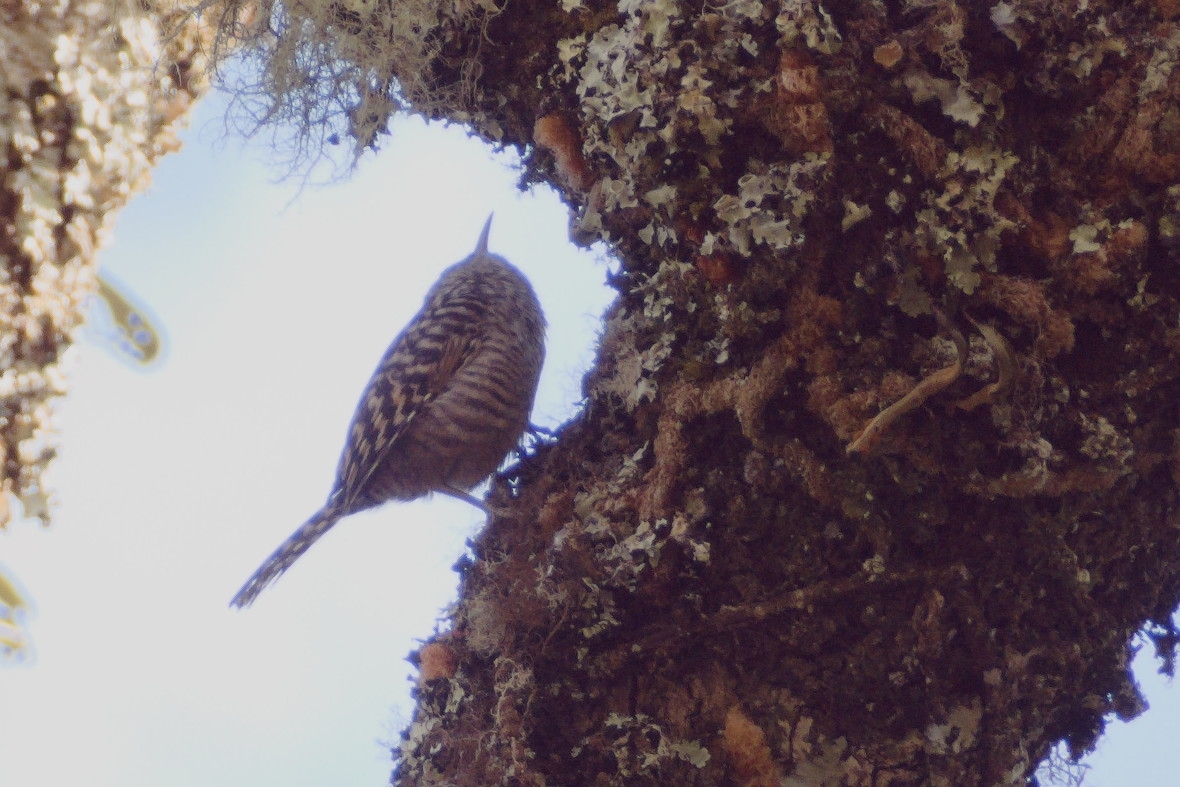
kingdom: Animalia
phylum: Chordata
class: Aves
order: Passeriformes
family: Troglodytidae
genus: Campylorhynchus
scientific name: Campylorhynchus megalopterus
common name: Gray-barred wren
